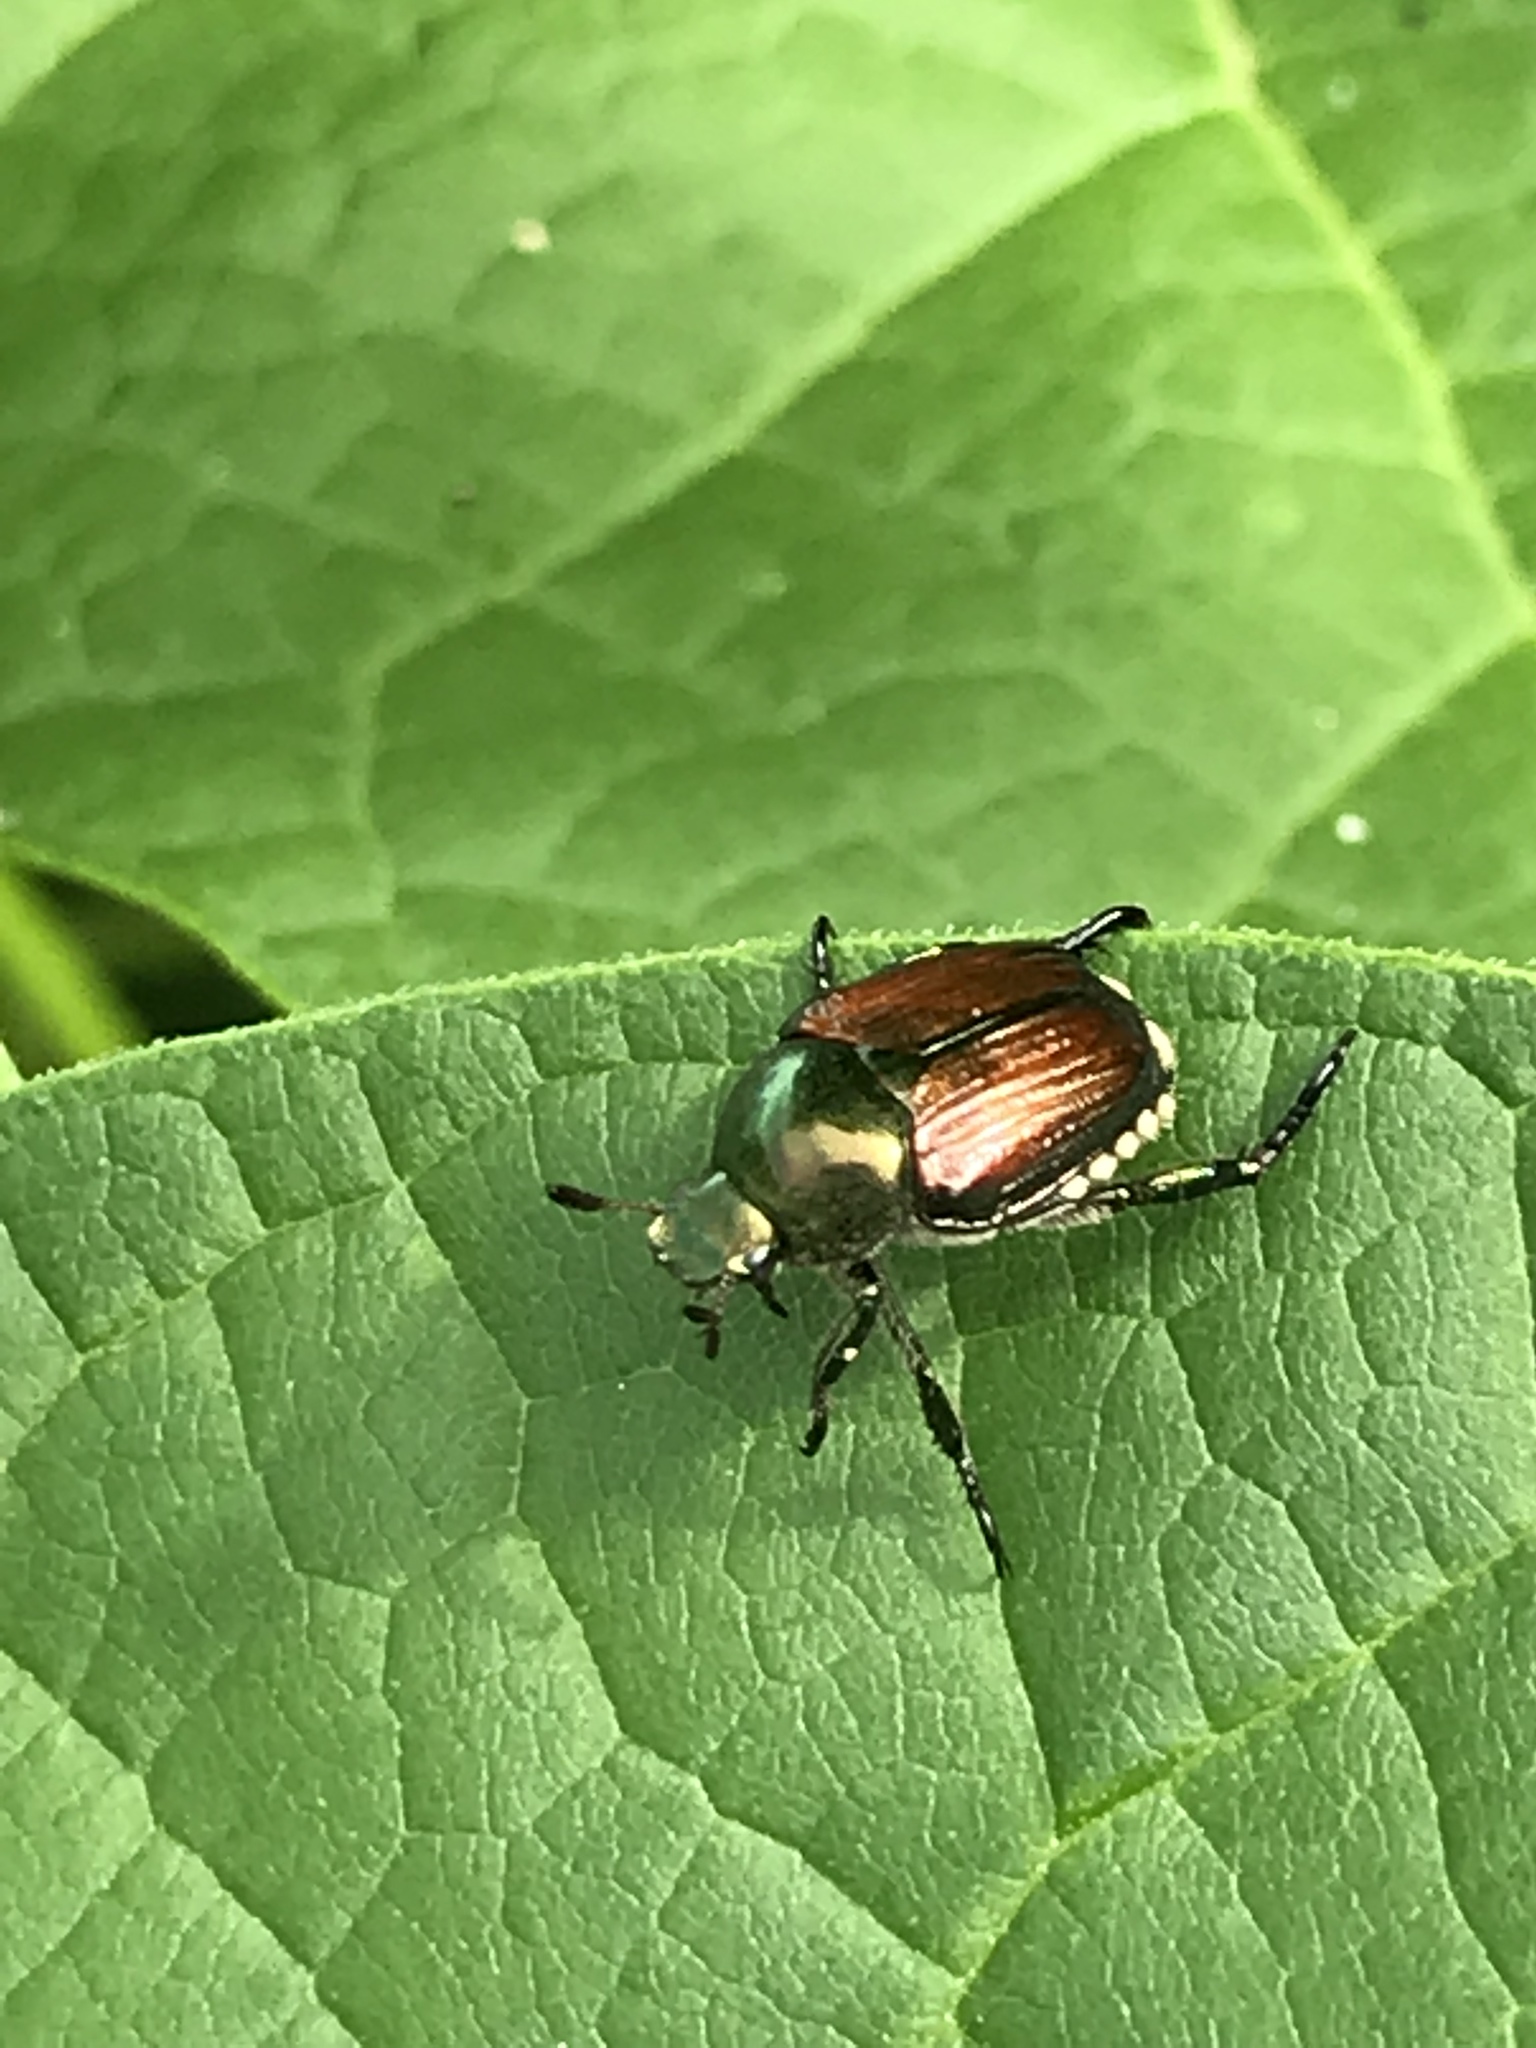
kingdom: Animalia
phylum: Arthropoda
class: Insecta
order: Coleoptera
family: Scarabaeidae
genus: Popillia
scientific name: Popillia japonica
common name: Japanese beetle
